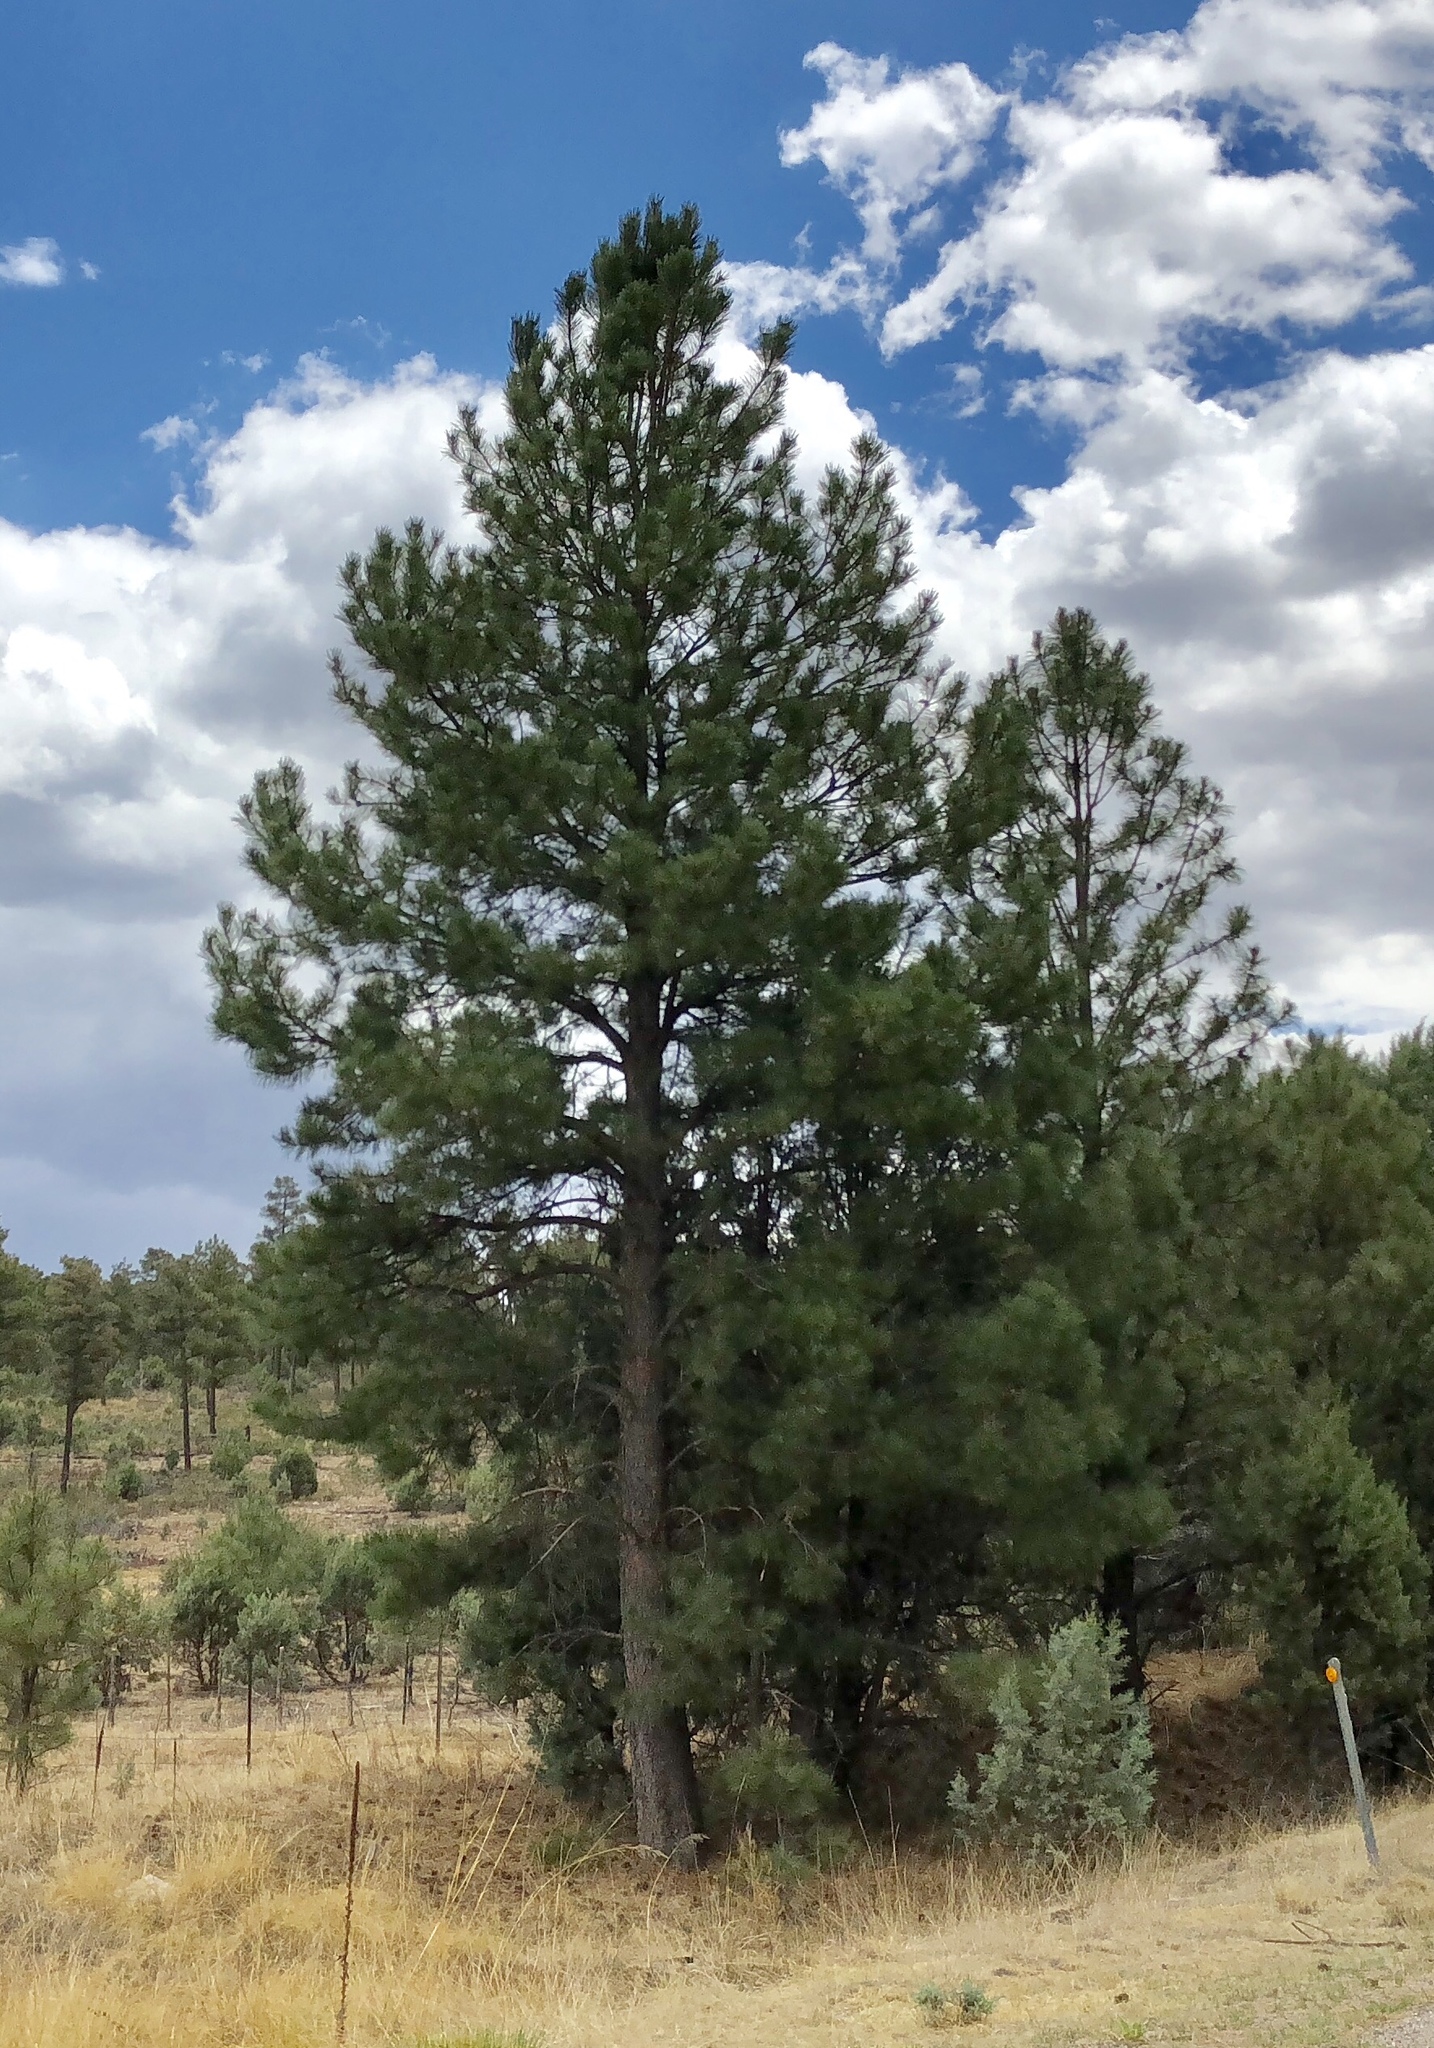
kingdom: Plantae
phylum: Tracheophyta
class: Pinopsida
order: Pinales
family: Pinaceae
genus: Pinus
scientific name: Pinus ponderosa
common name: Western yellow-pine
